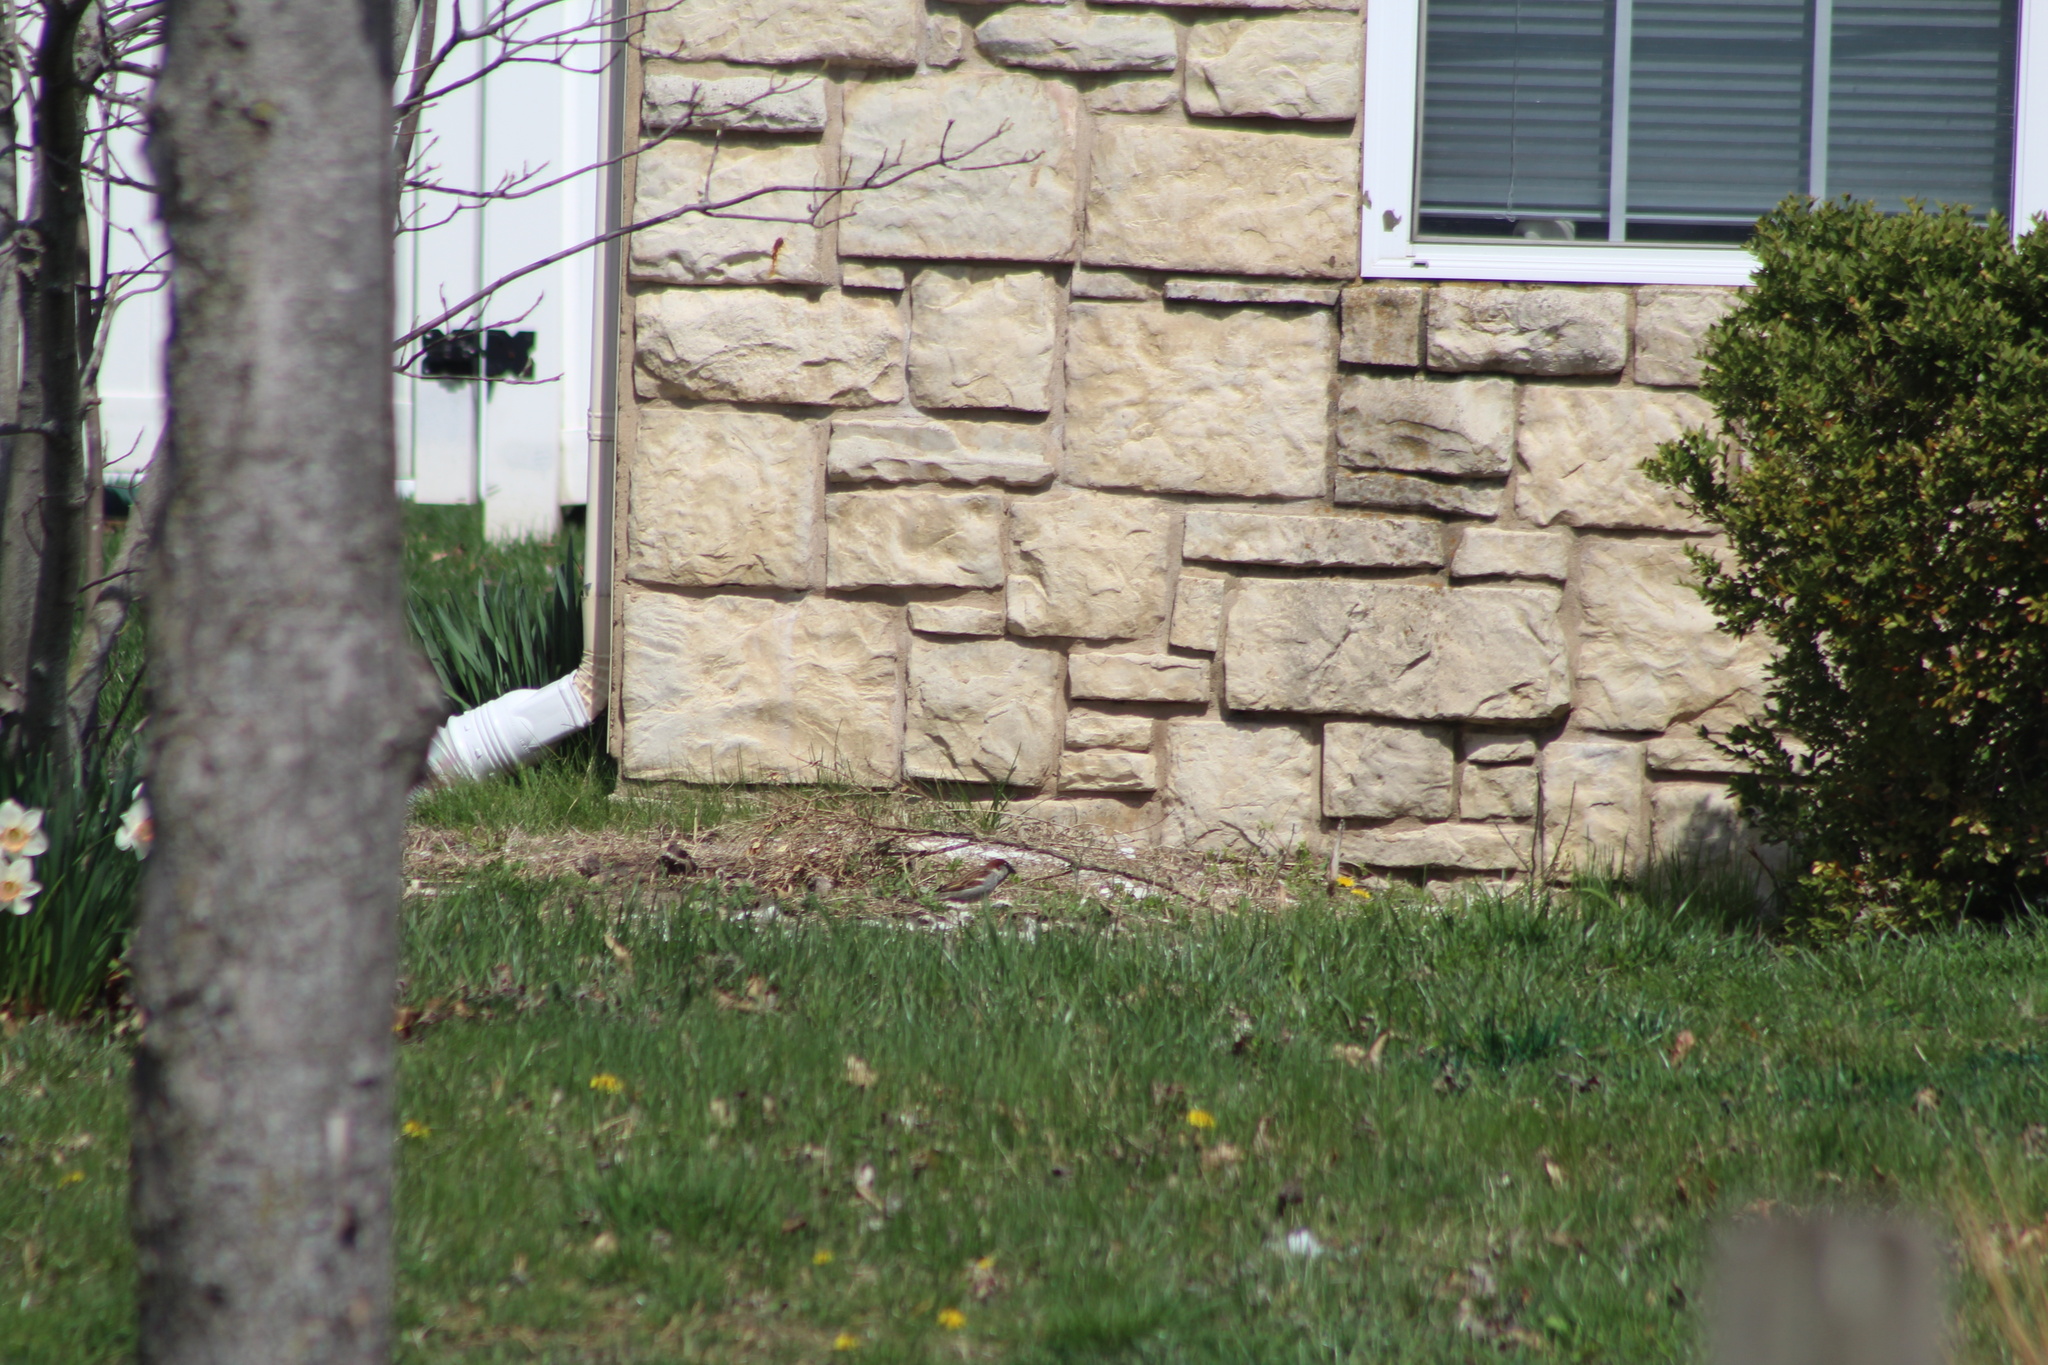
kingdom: Animalia
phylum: Chordata
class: Aves
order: Passeriformes
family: Passeridae
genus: Passer
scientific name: Passer domesticus
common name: House sparrow
